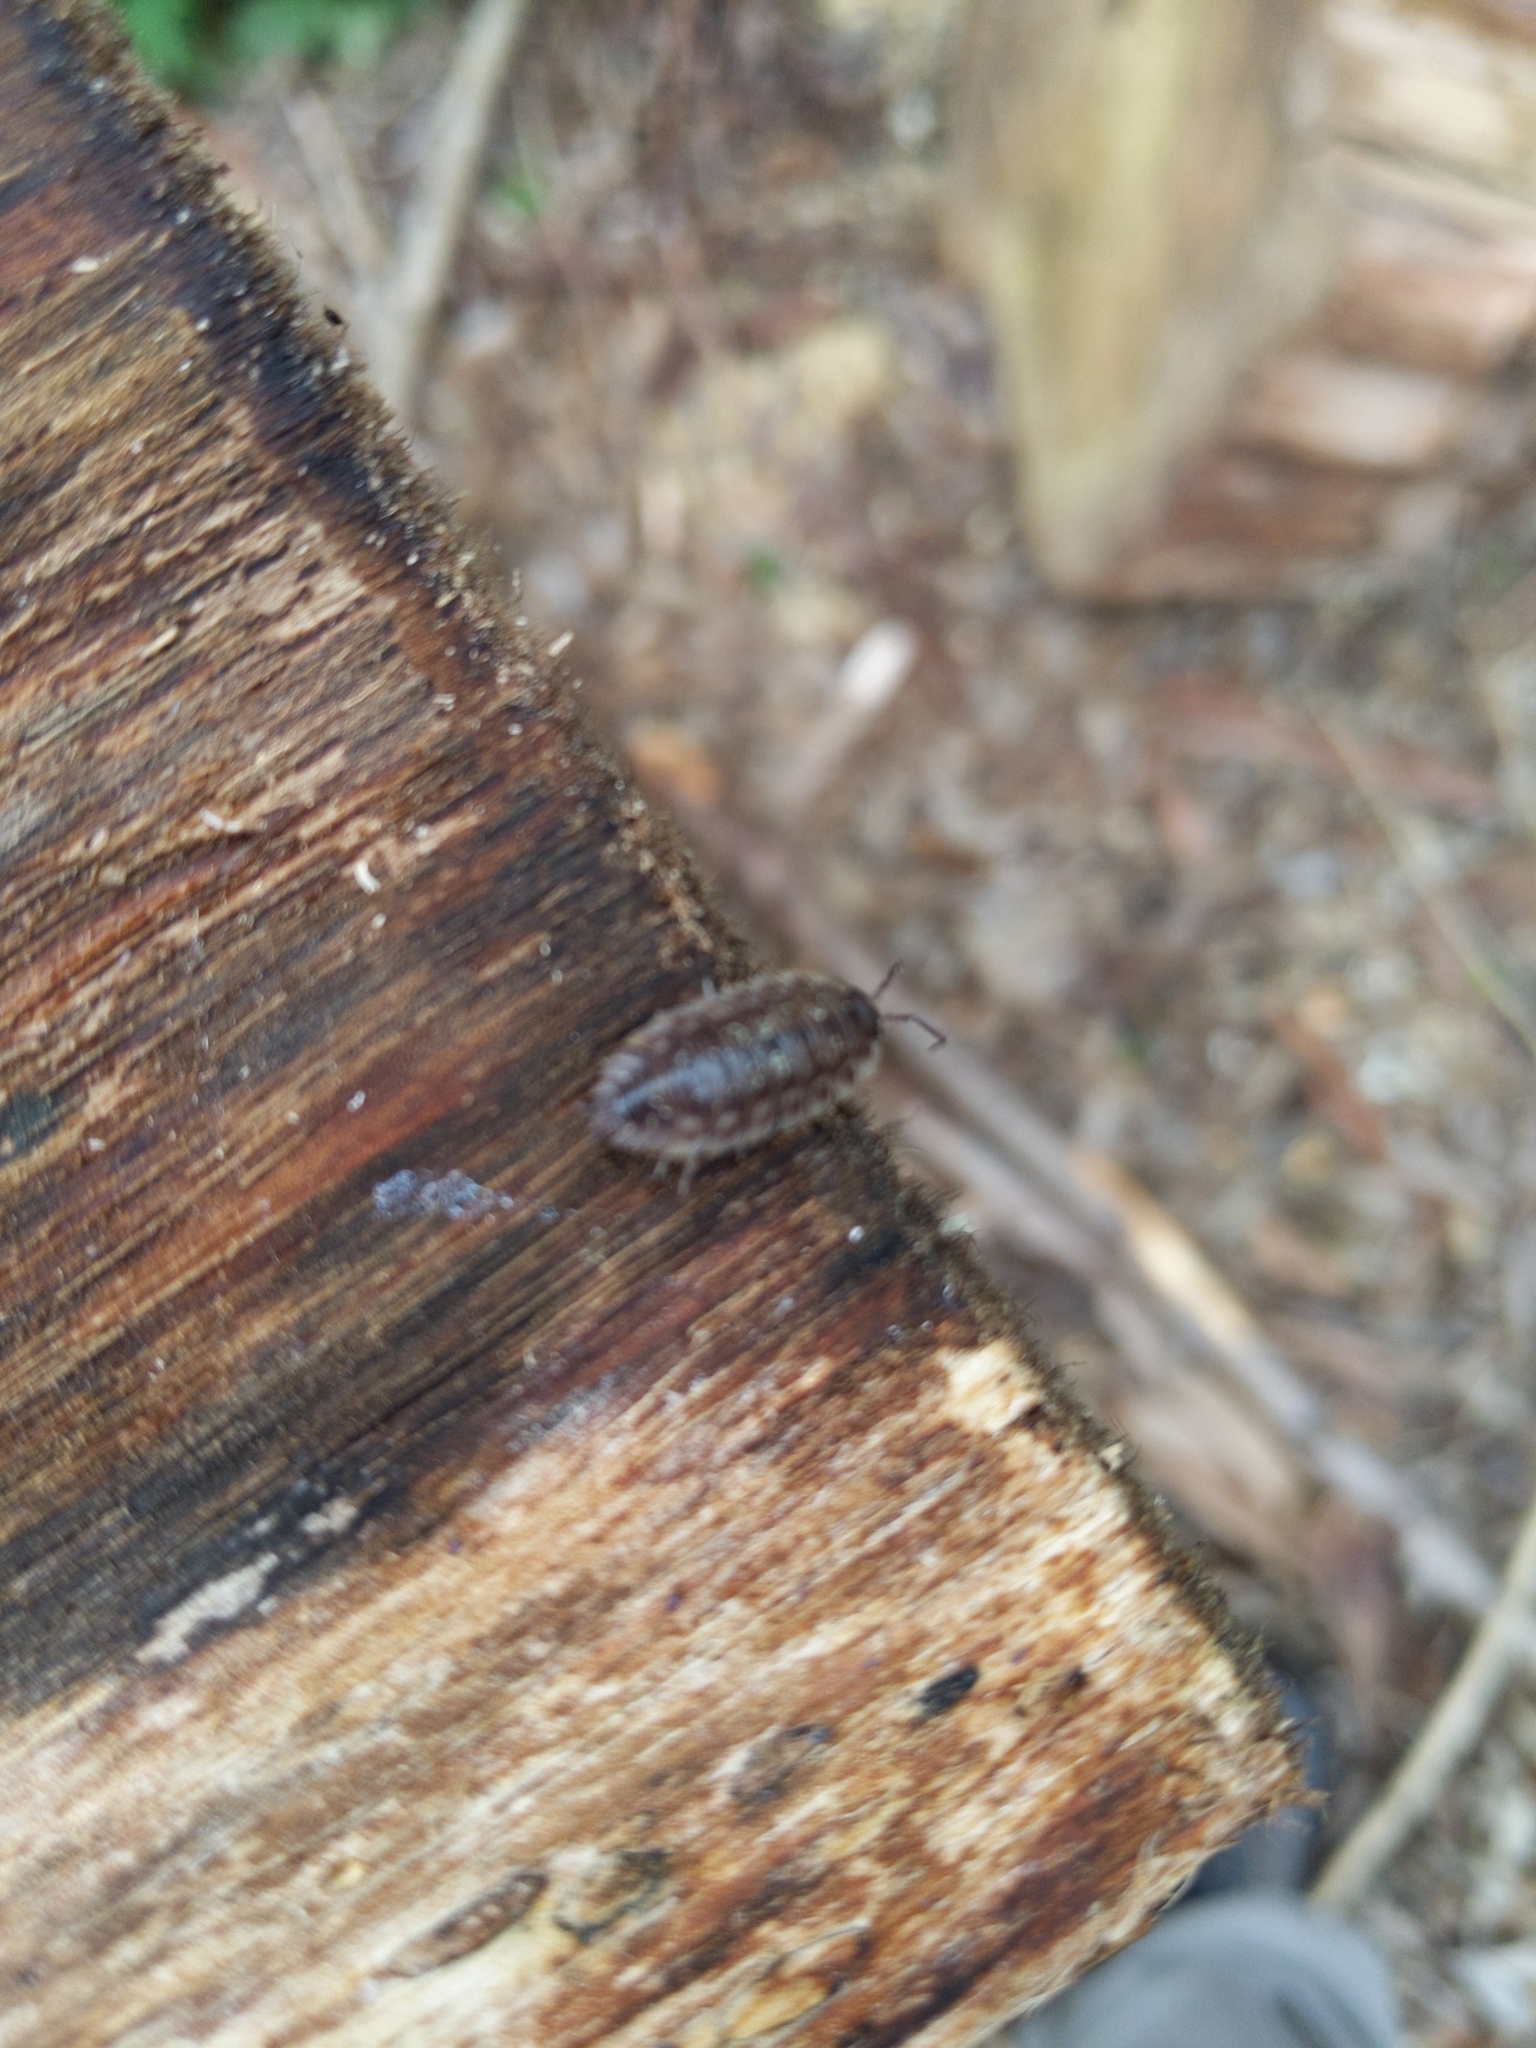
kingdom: Animalia
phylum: Arthropoda
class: Malacostraca
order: Isopoda
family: Oniscidae
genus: Oniscus
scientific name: Oniscus asellus
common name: Common shiny woodlouse
